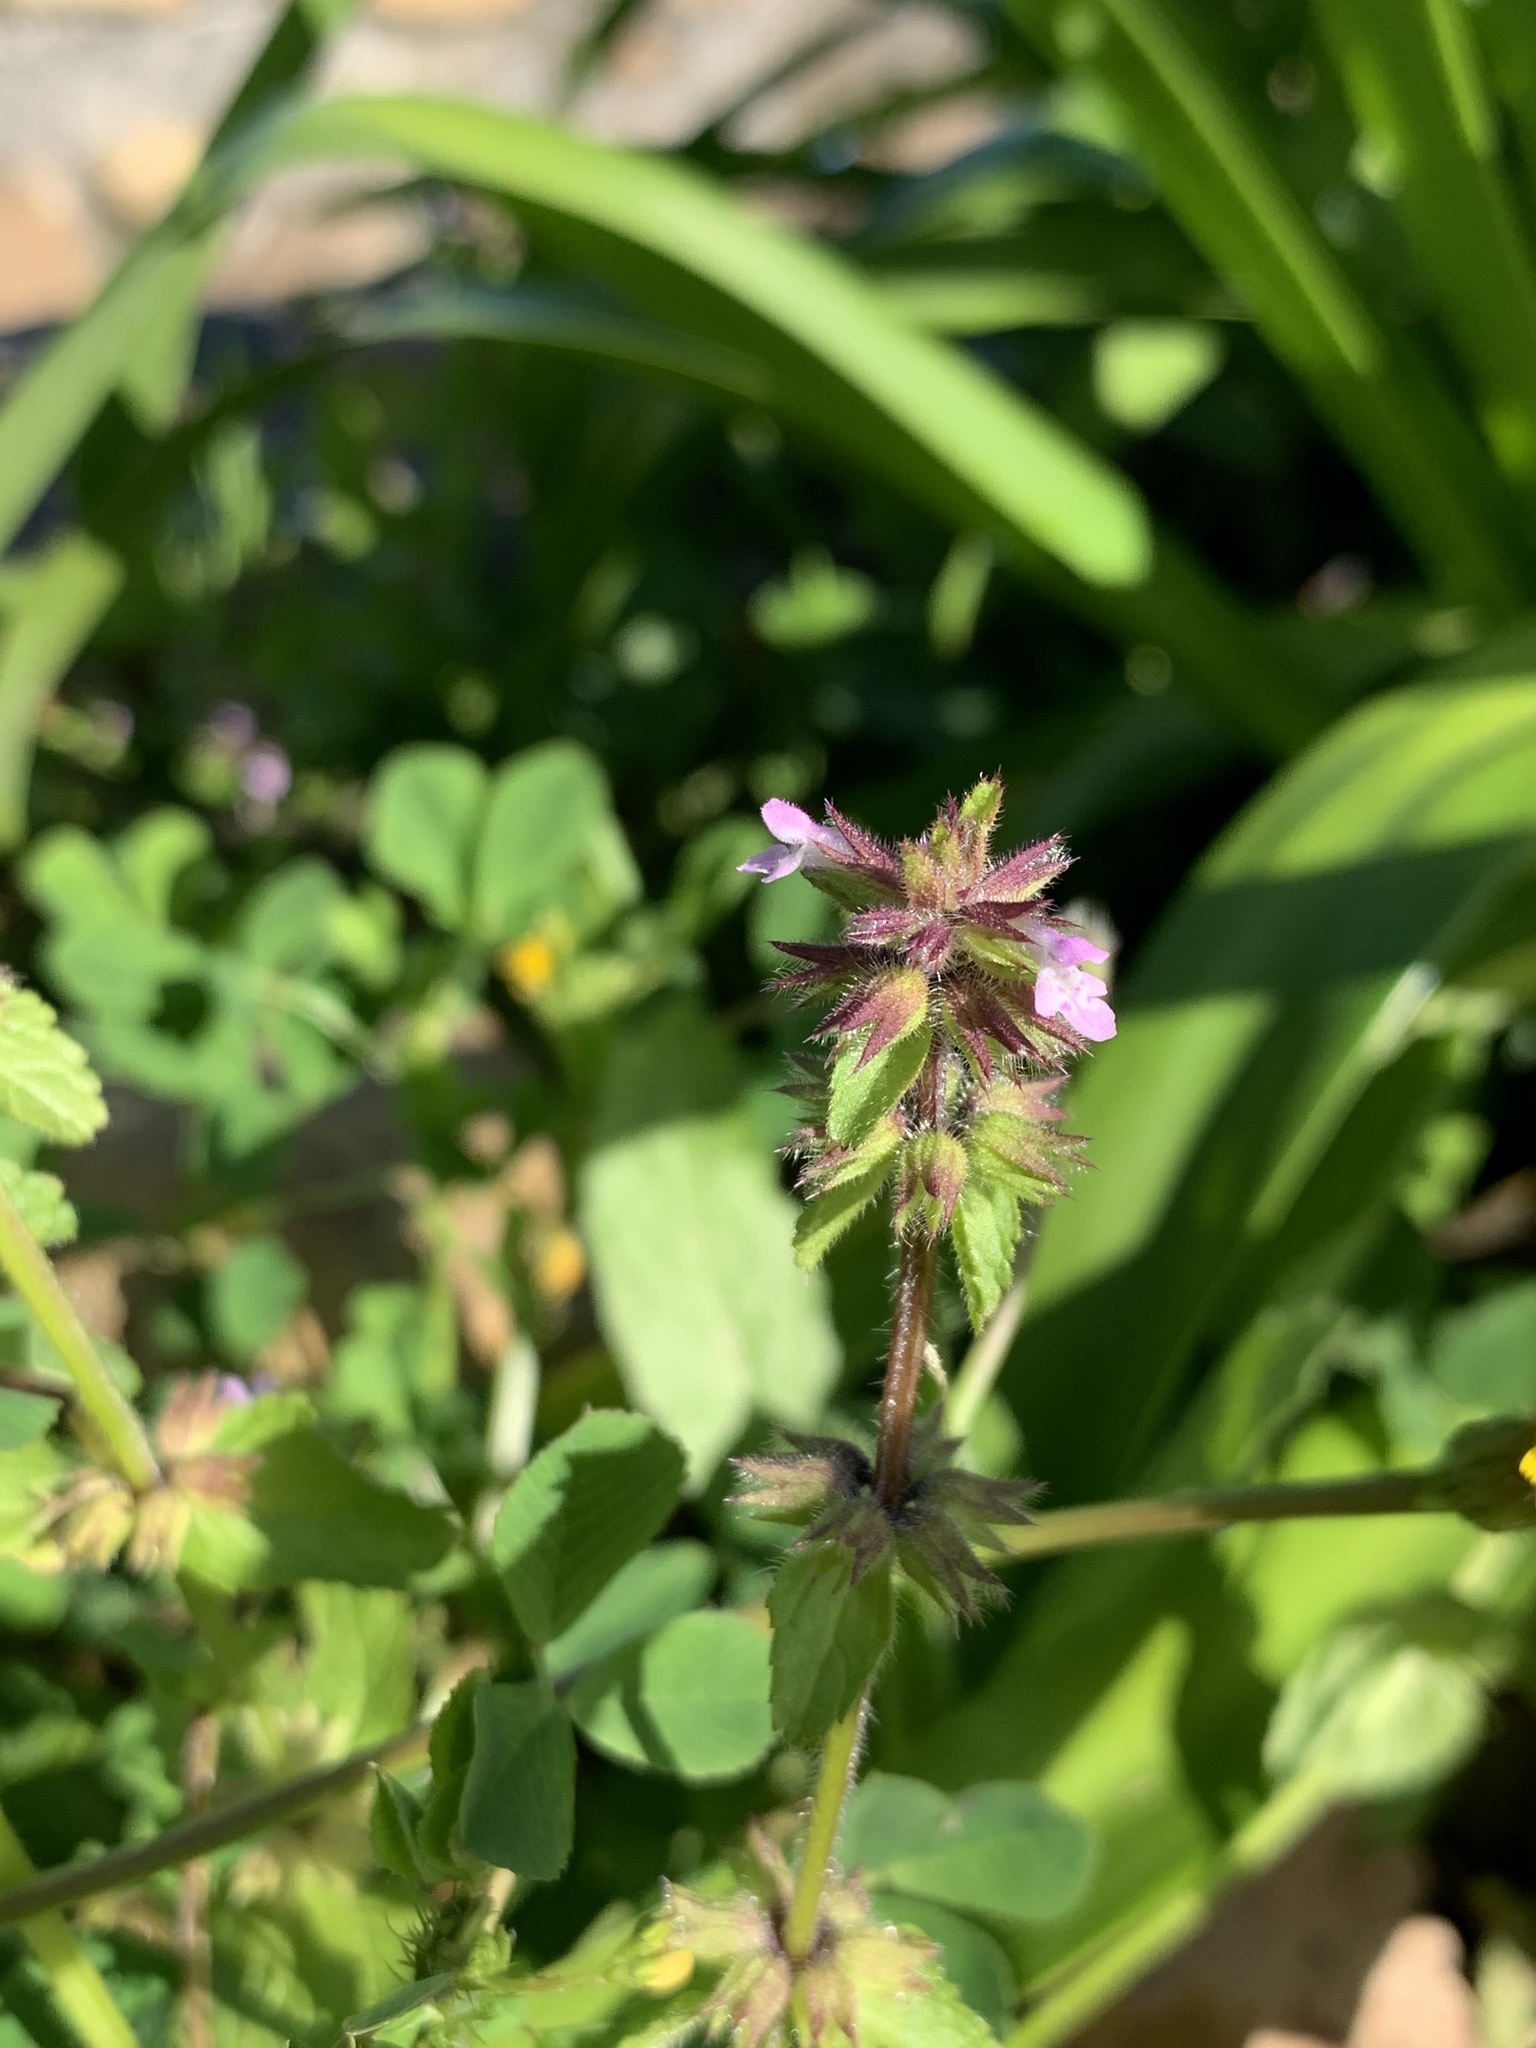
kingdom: Plantae
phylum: Tracheophyta
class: Magnoliopsida
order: Lamiales
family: Lamiaceae
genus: Stachys
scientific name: Stachys arvensis
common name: Field woundwort
